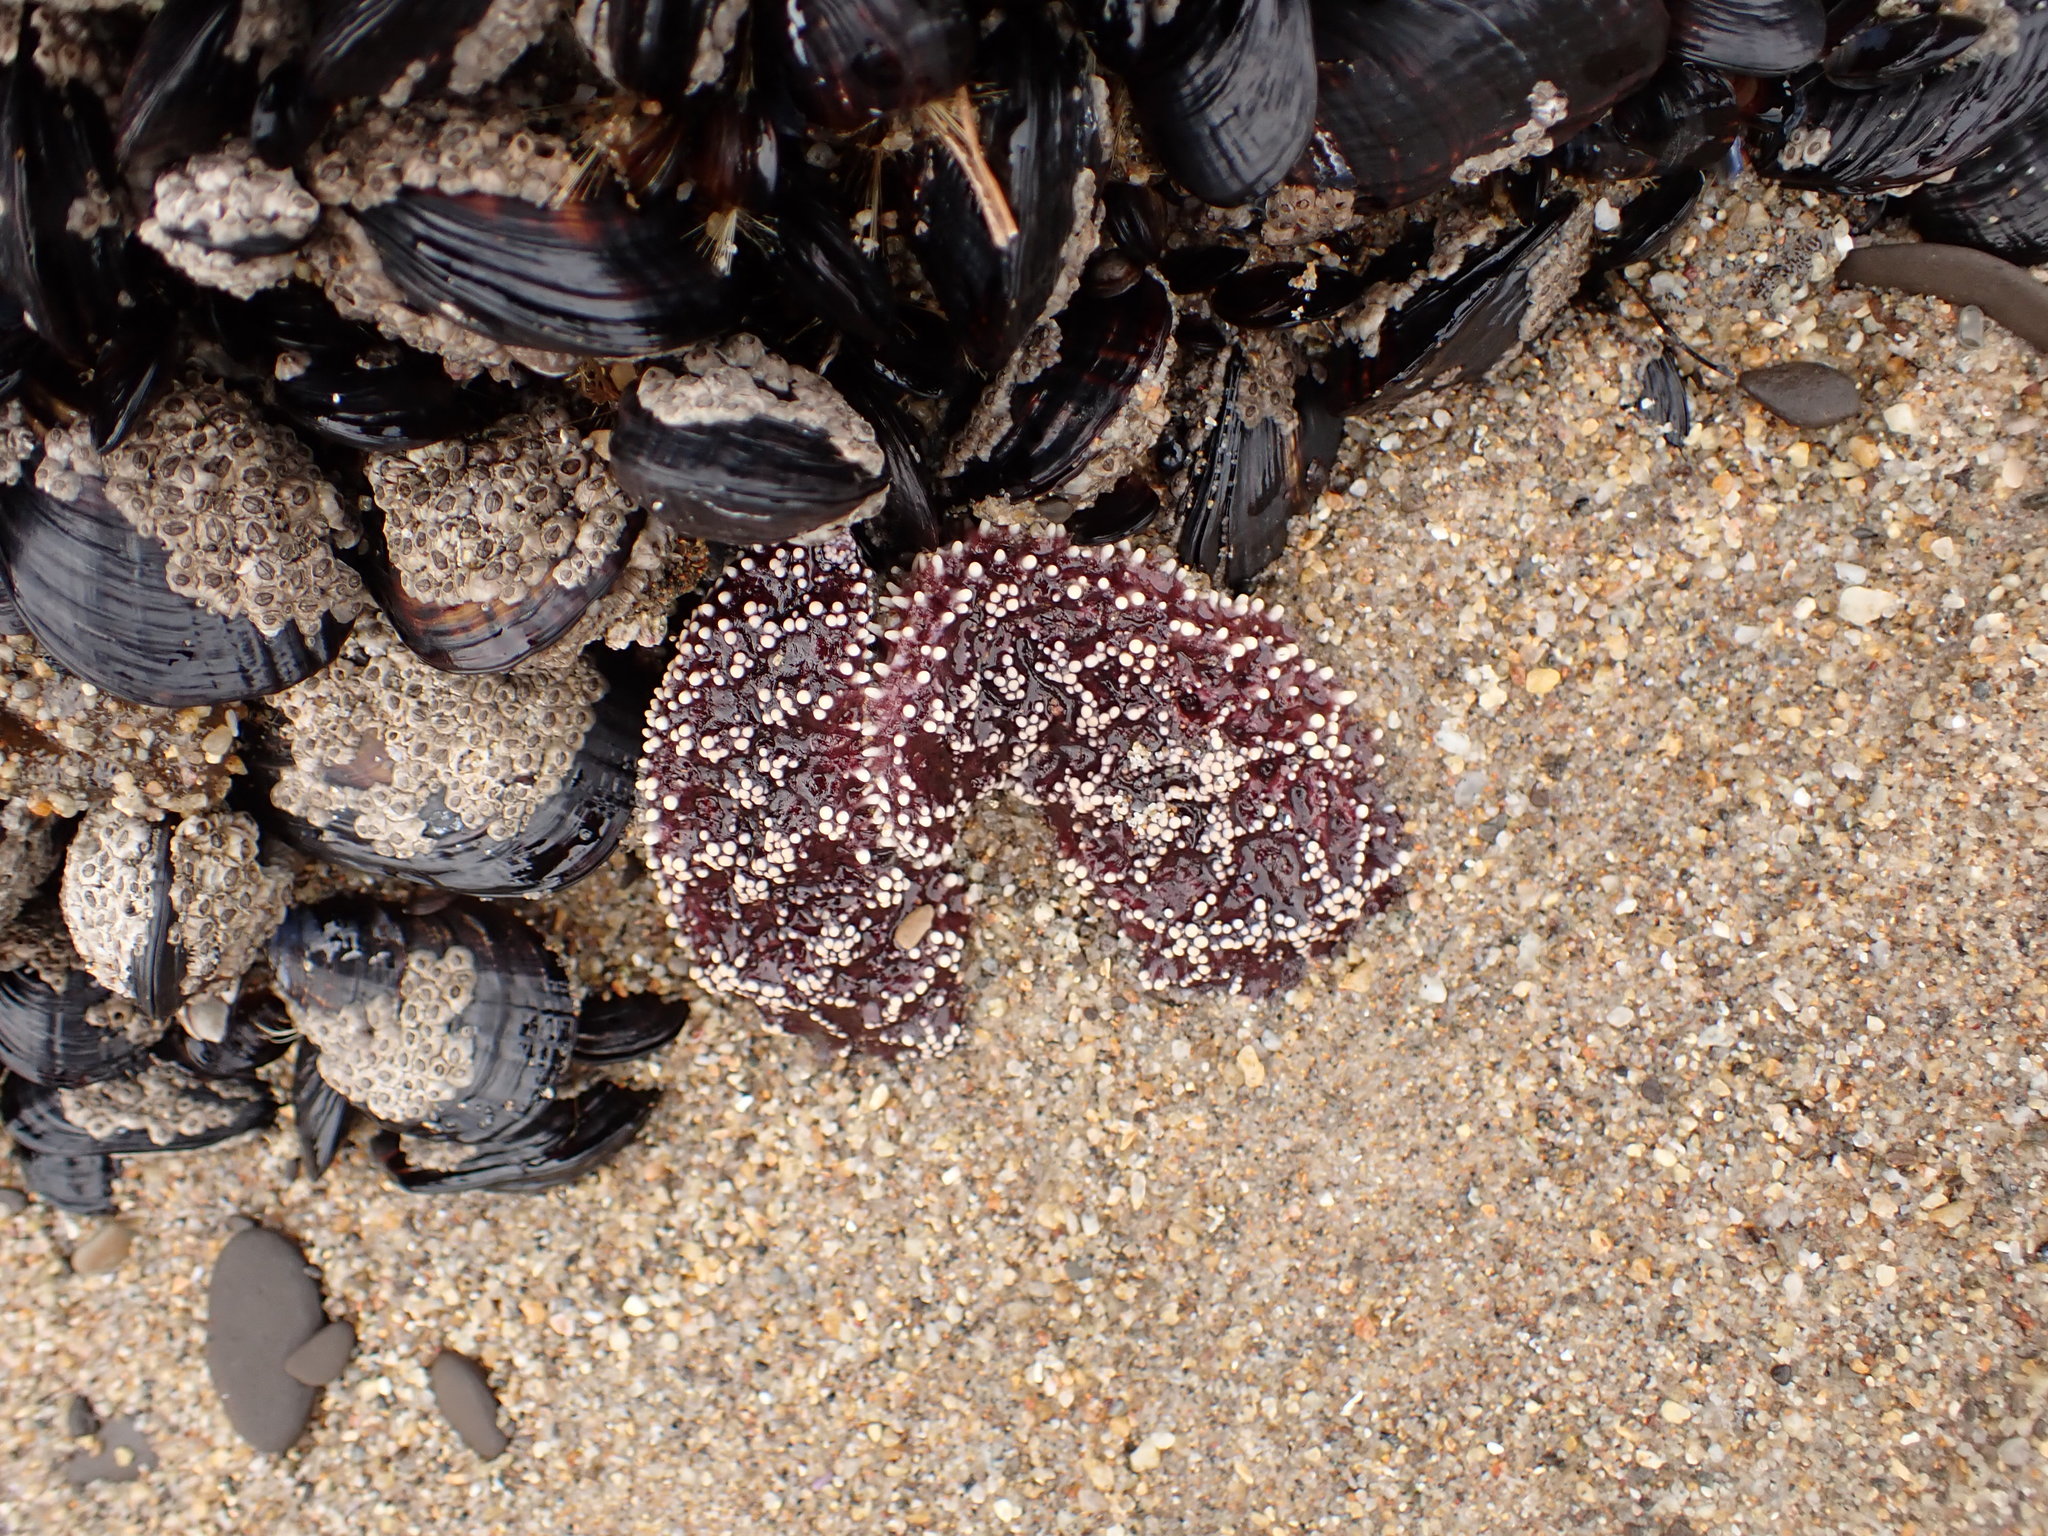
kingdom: Animalia
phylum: Echinodermata
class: Asteroidea
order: Forcipulatida
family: Asteriidae
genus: Pisaster
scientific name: Pisaster ochraceus
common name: Ochre stars
